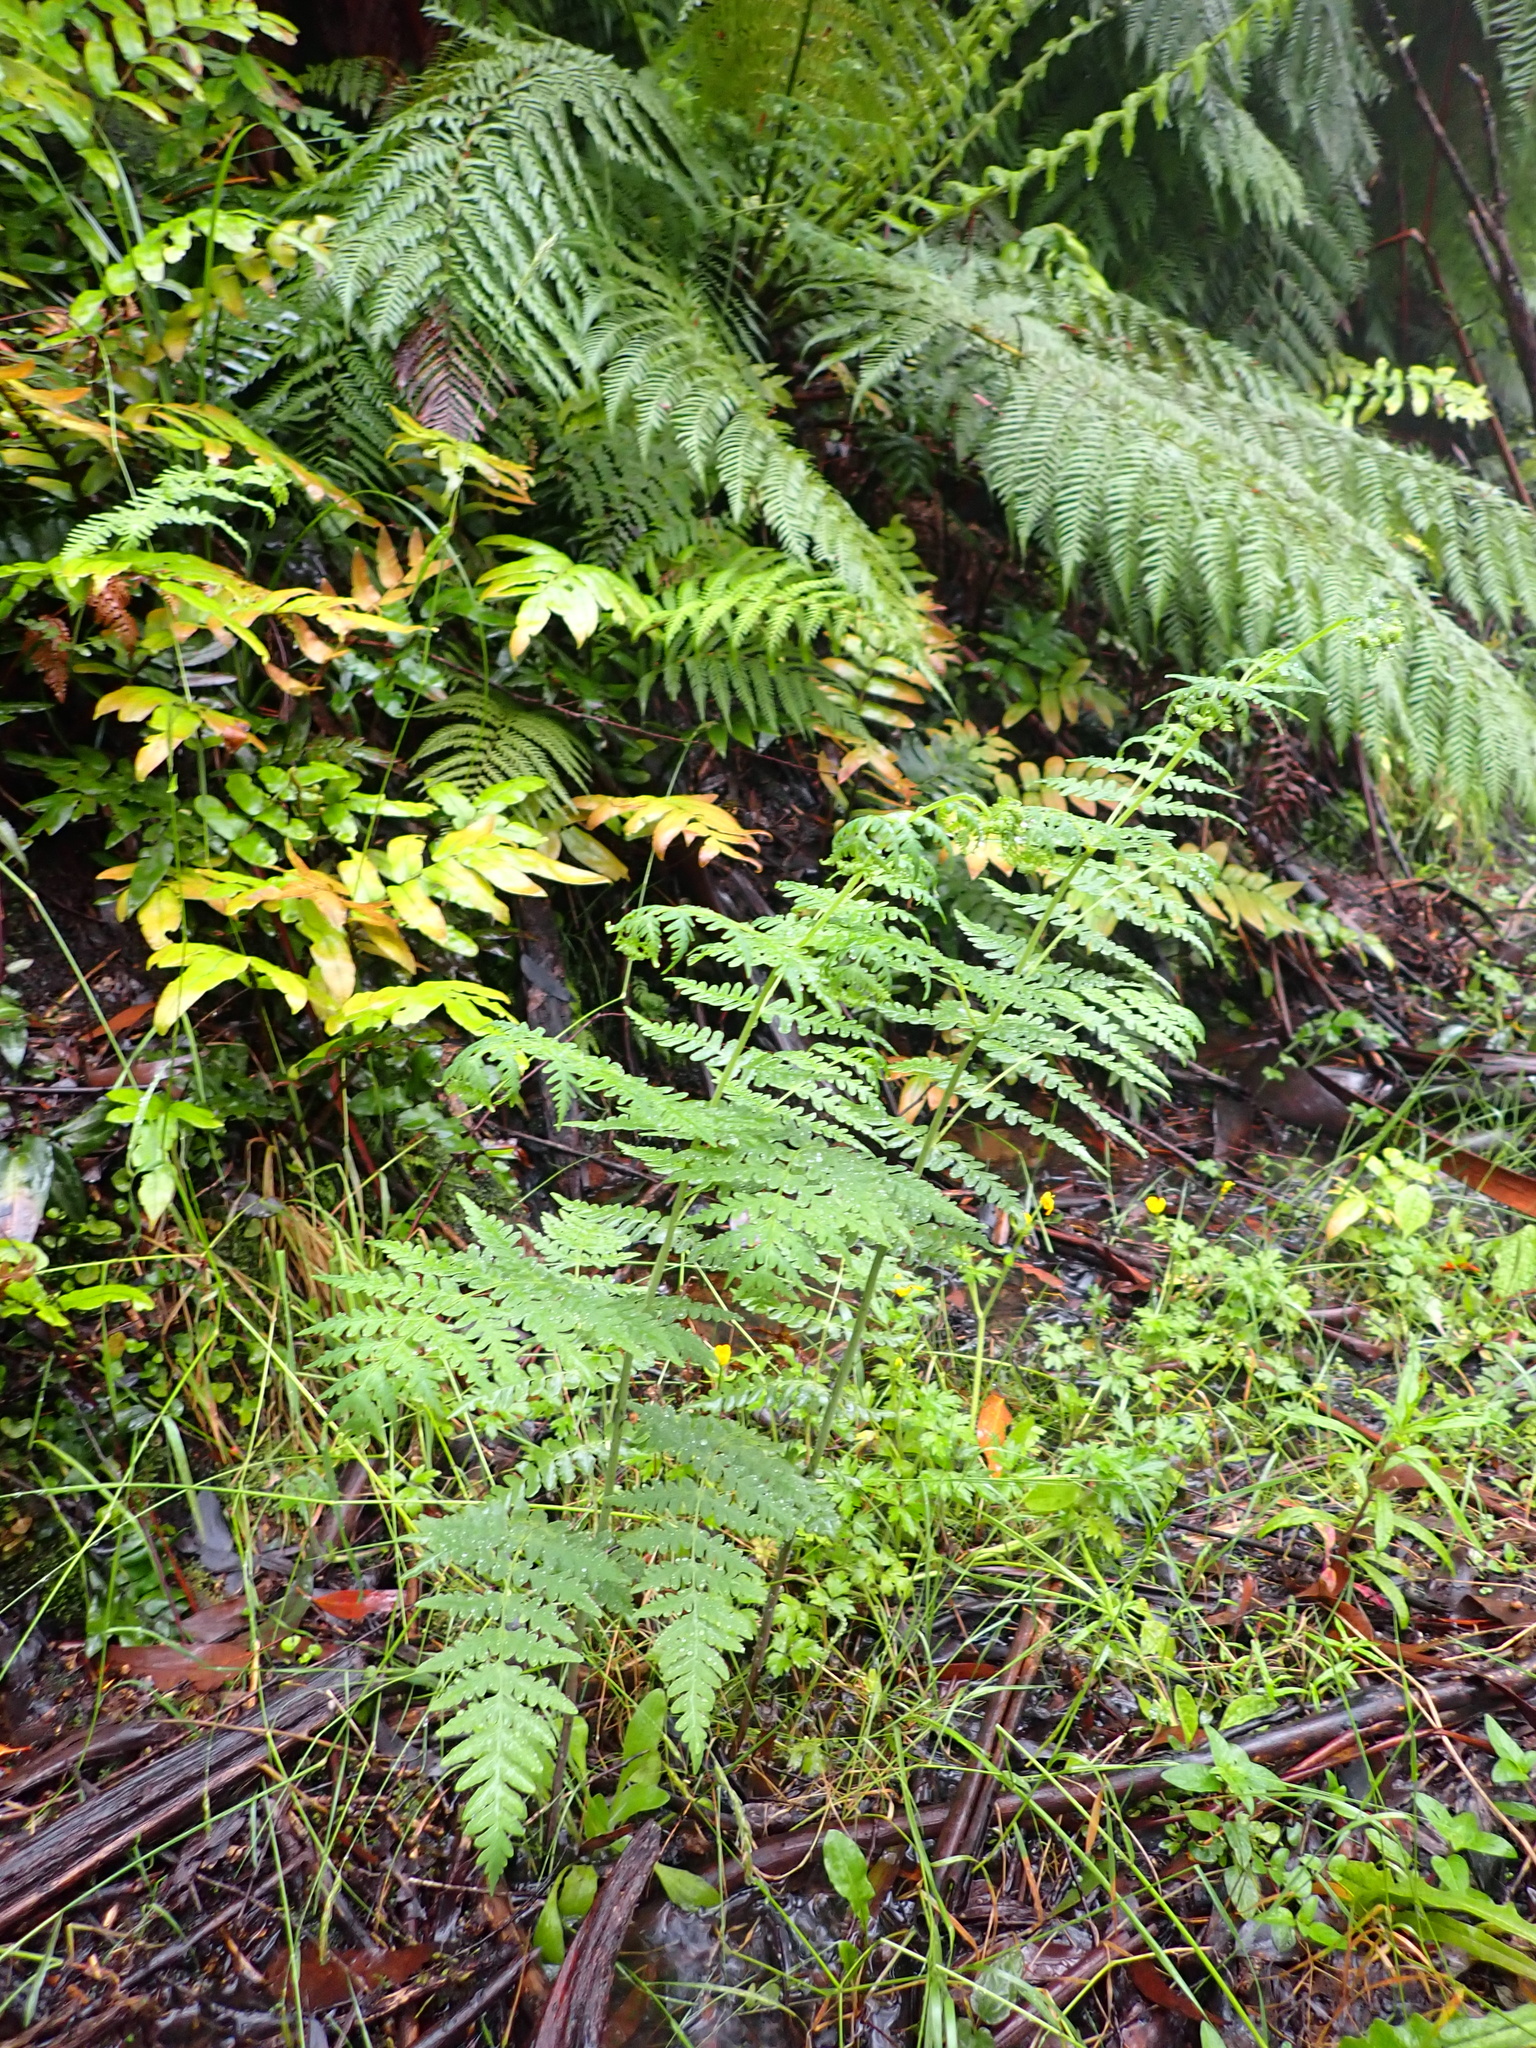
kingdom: Plantae
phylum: Tracheophyta
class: Polypodiopsida
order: Polypodiales
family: Dennstaedtiaceae
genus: Histiopteris
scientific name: Histiopteris incisa
